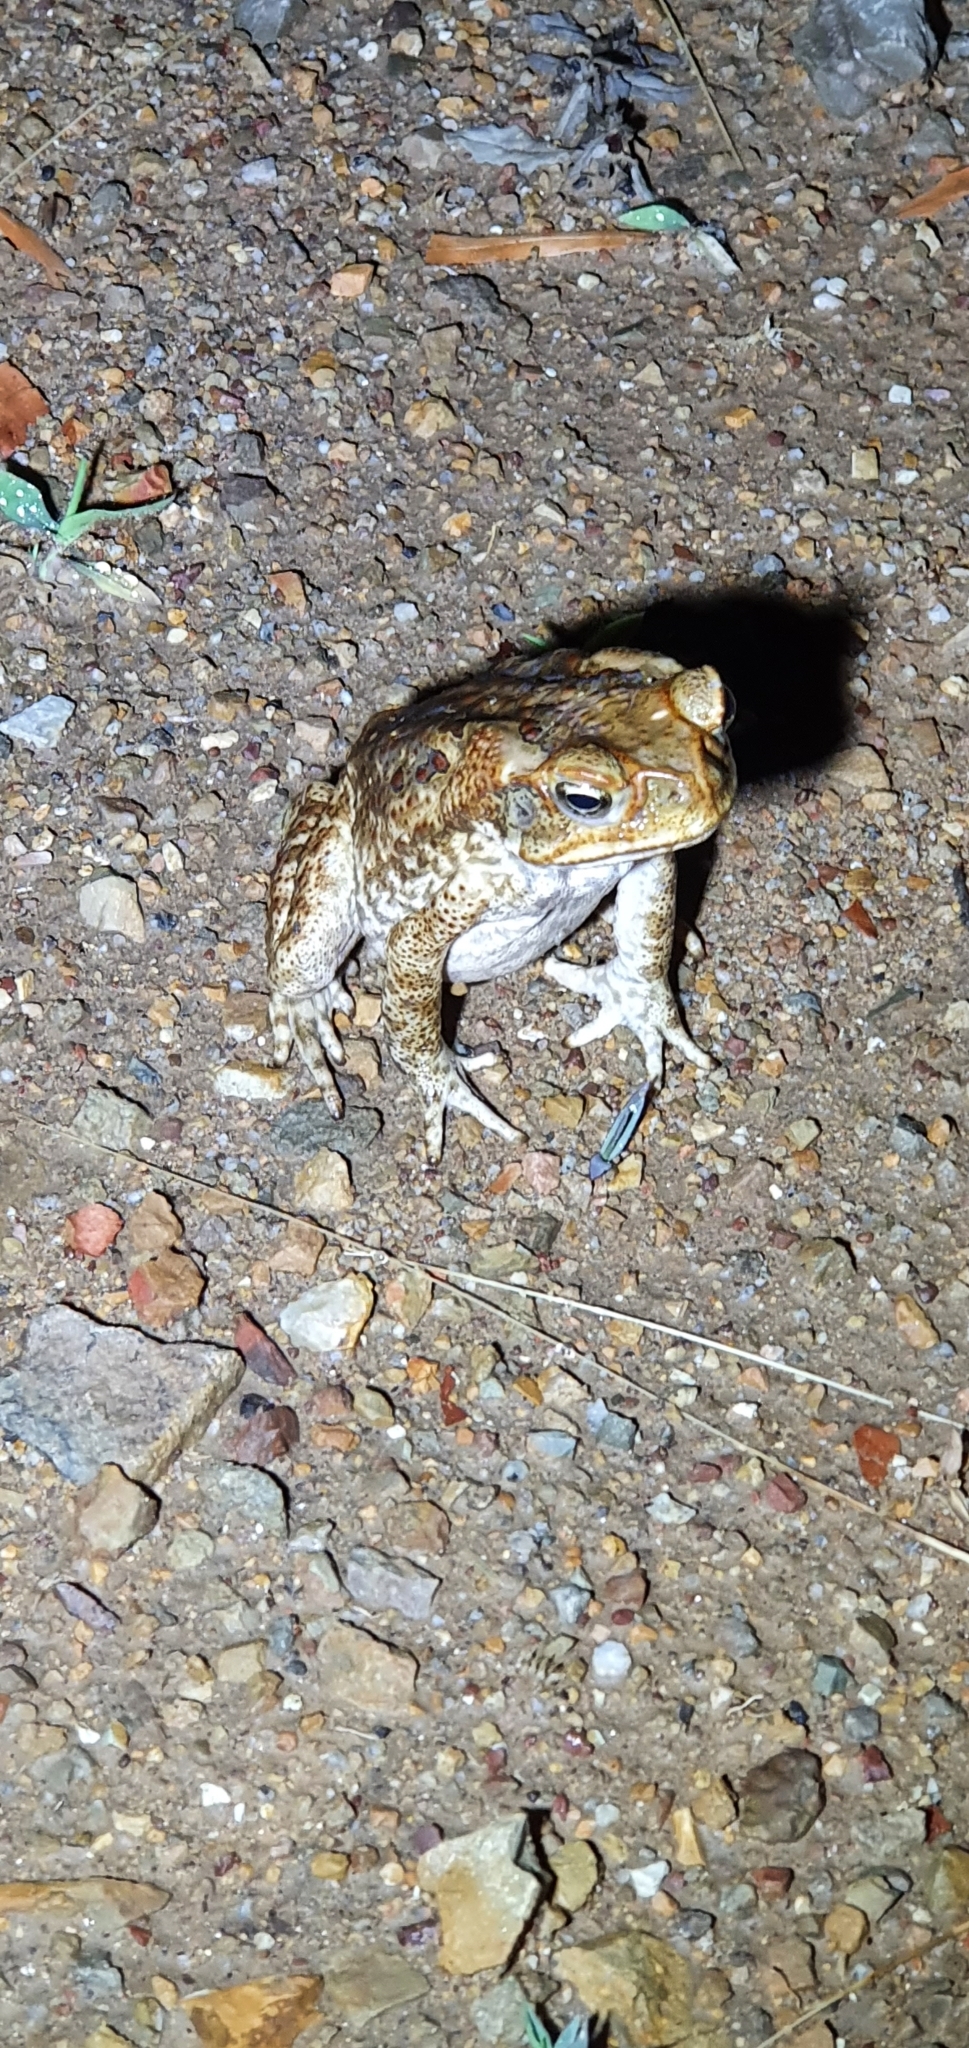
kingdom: Animalia
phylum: Chordata
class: Amphibia
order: Anura
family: Bufonidae
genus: Rhinella
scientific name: Rhinella marina
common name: Cane toad
